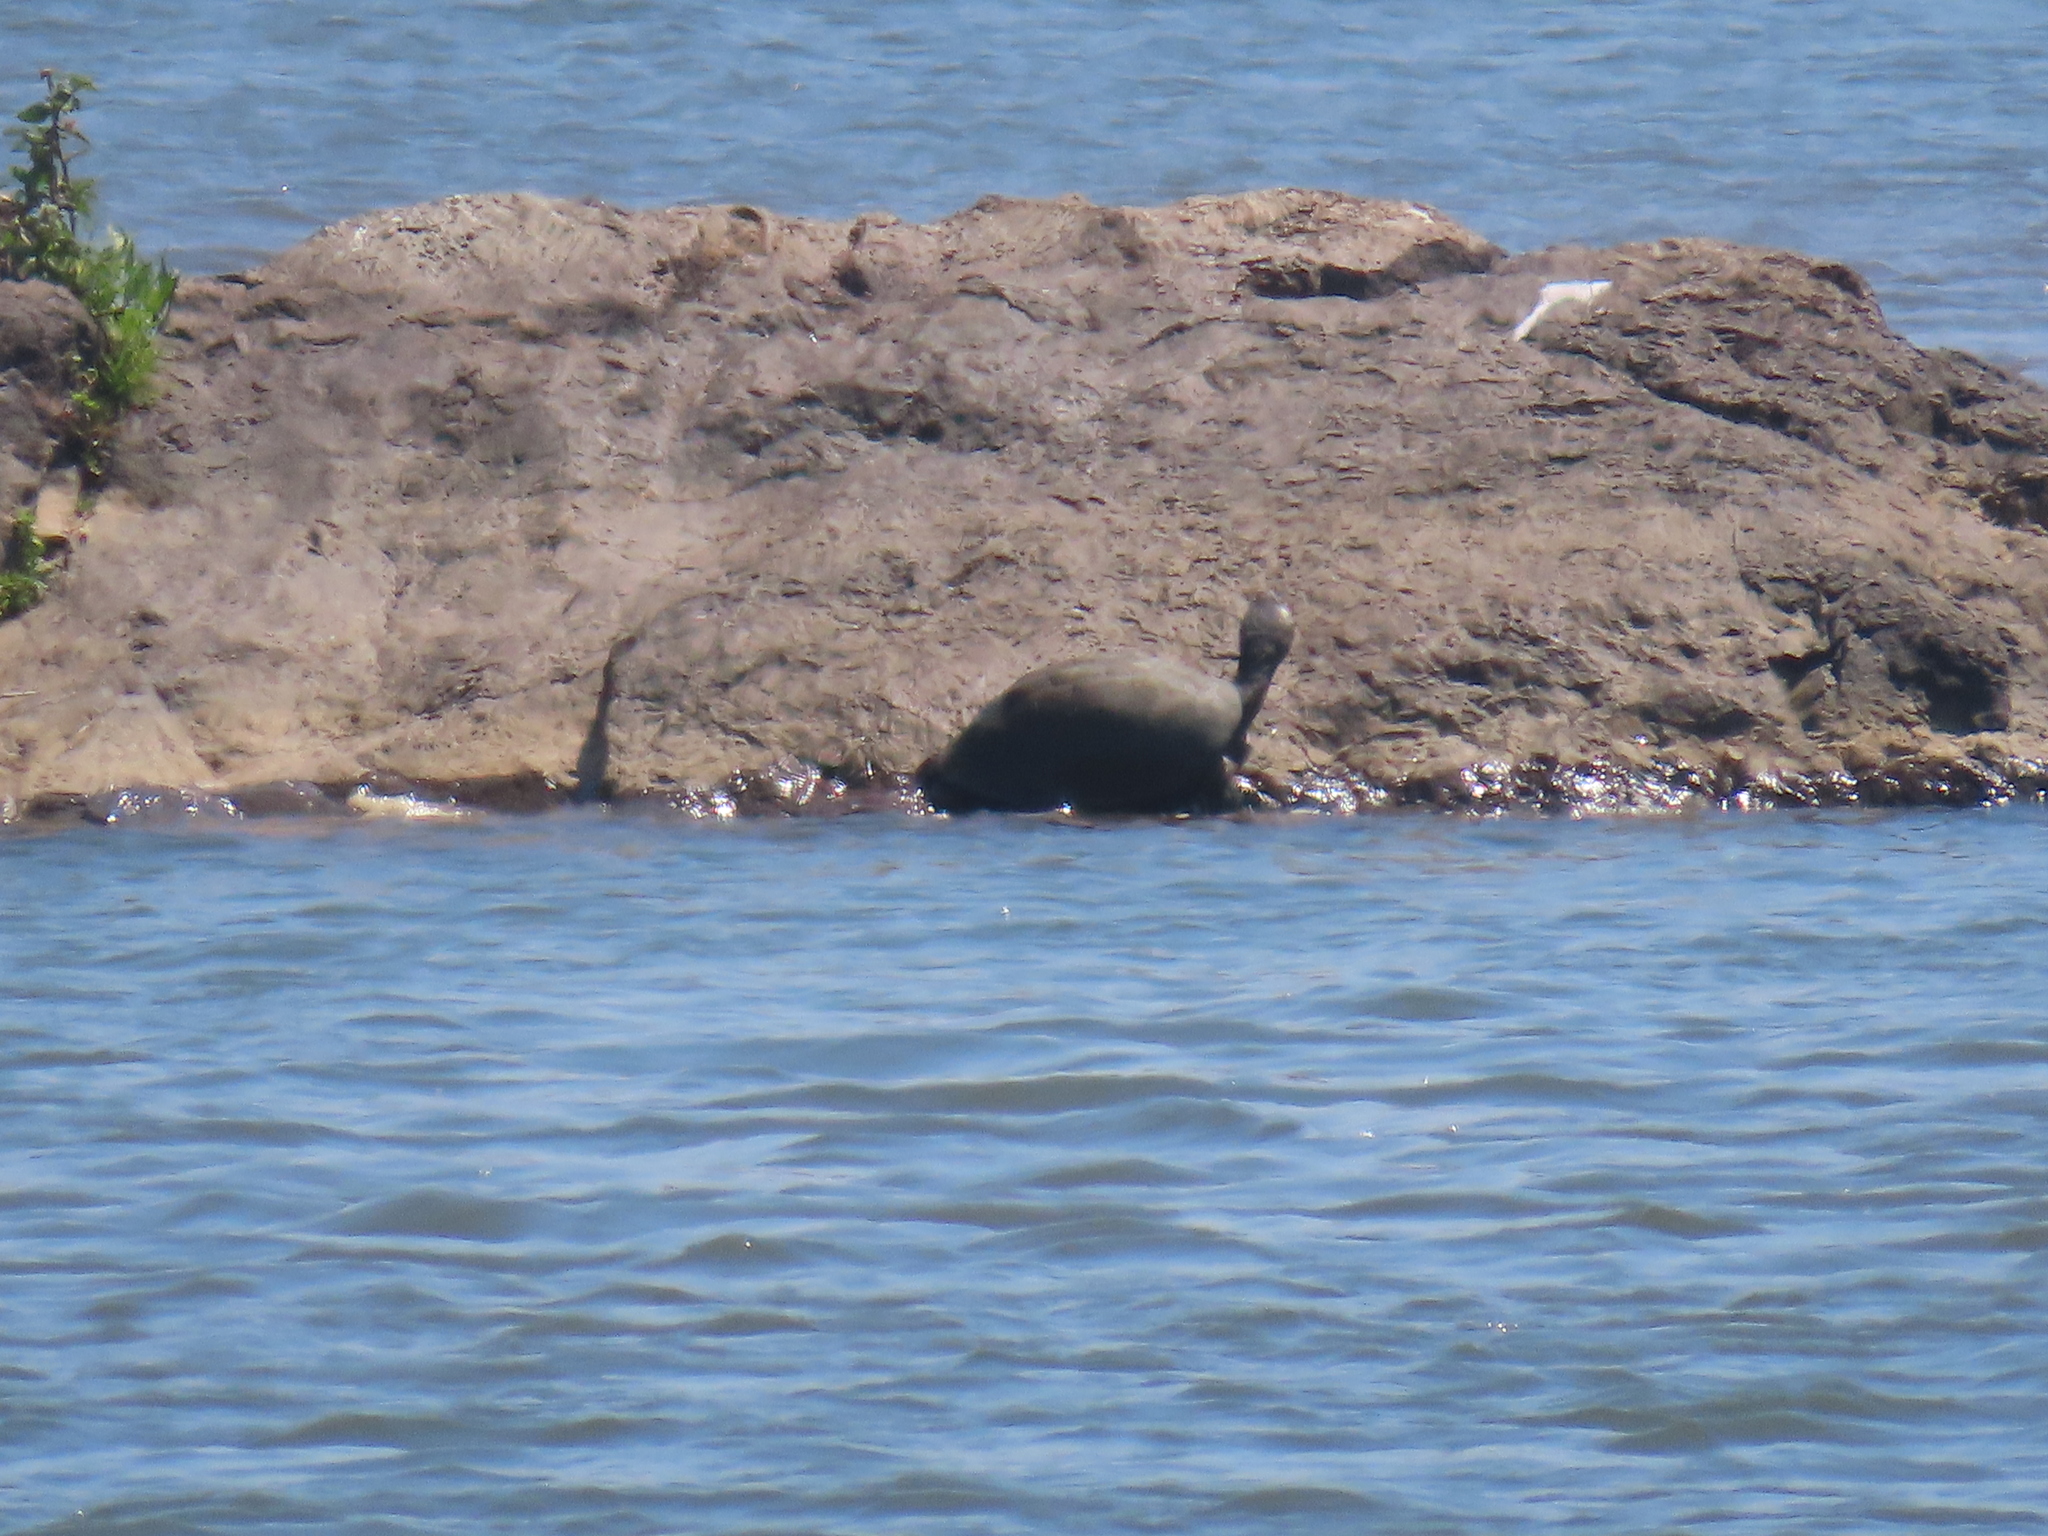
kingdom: Animalia
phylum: Chordata
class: Testudines
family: Pelomedusidae
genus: Pelusios
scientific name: Pelusios sinuatus
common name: Serrated hinged terrapin
